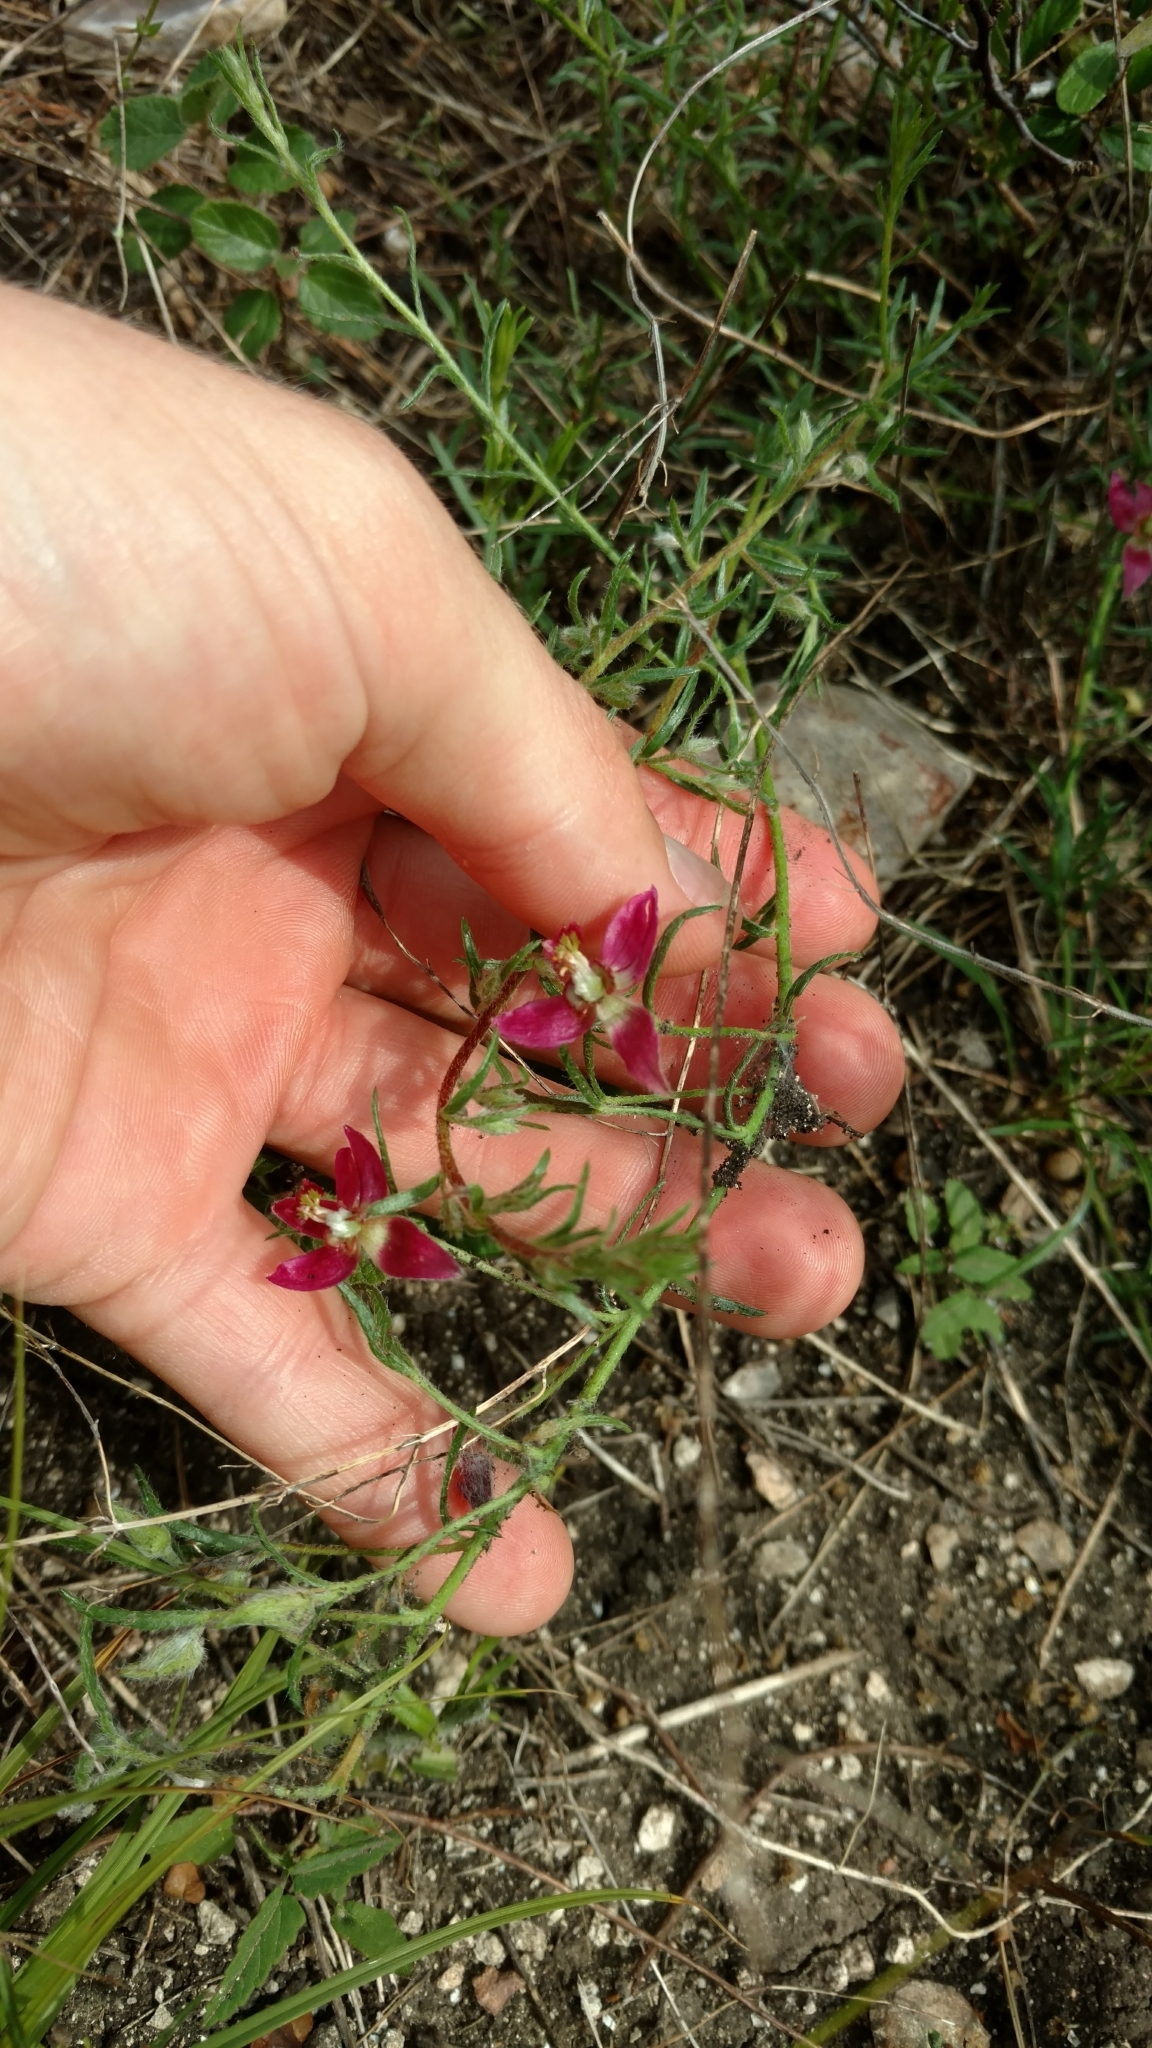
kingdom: Plantae
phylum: Tracheophyta
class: Magnoliopsida
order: Zygophyllales
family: Krameriaceae
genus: Krameria
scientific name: Krameria lanceolata
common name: Ratany
